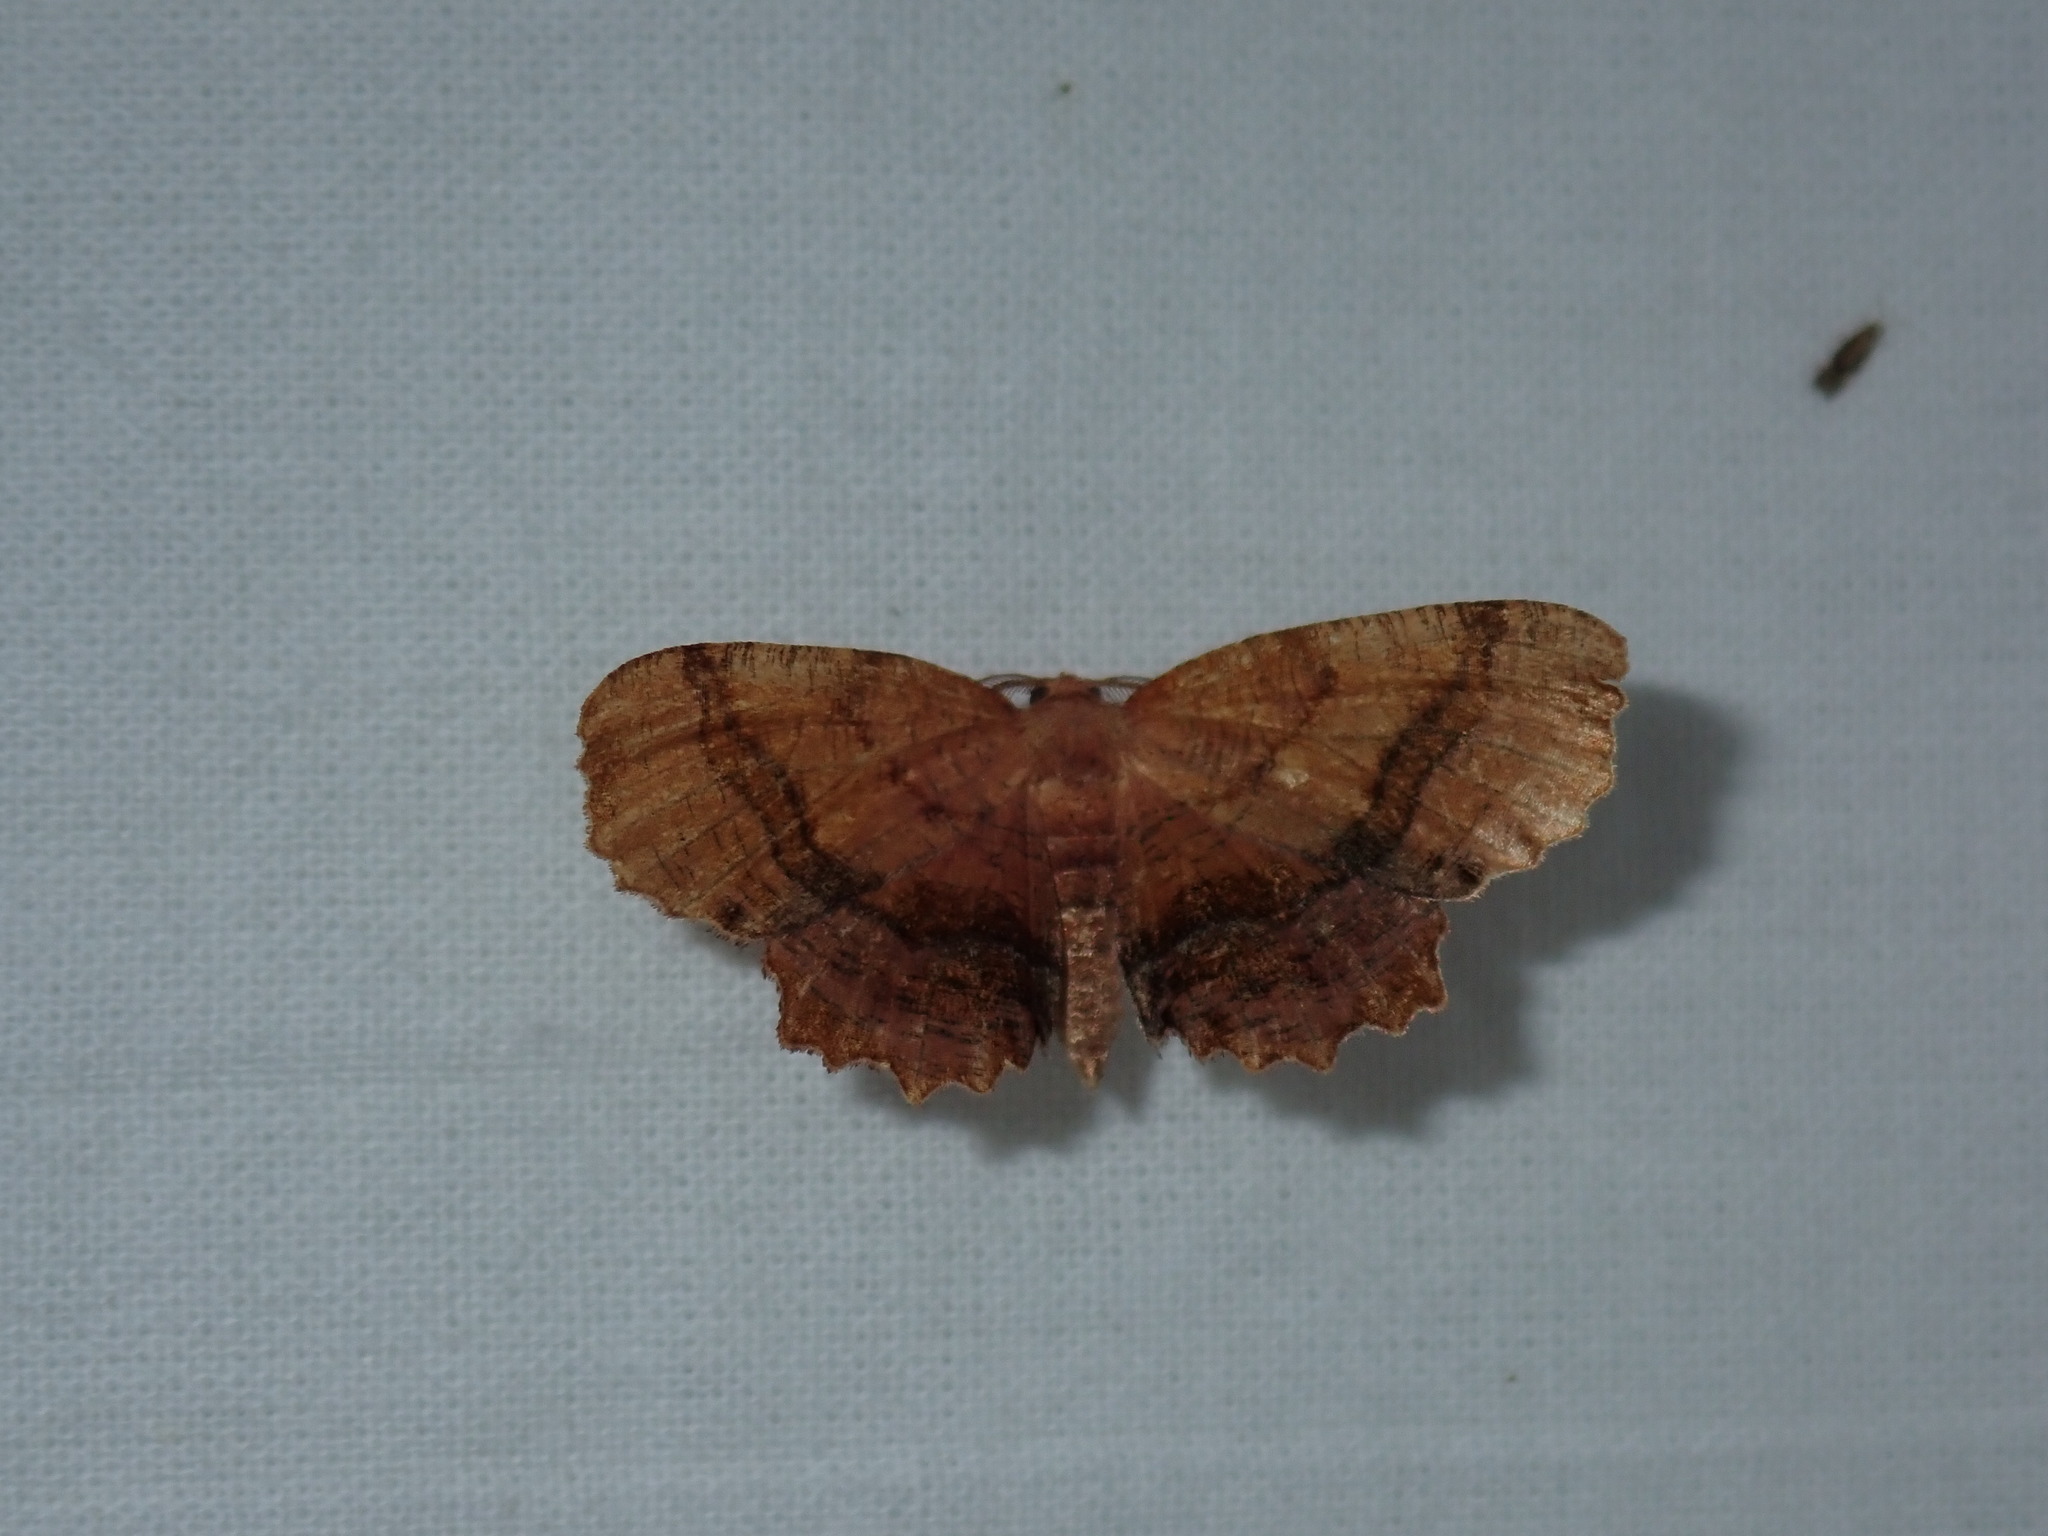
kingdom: Animalia
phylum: Arthropoda
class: Insecta
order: Lepidoptera
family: Geometridae
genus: Cepphis
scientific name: Cepphis armataria
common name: Scallop moth
